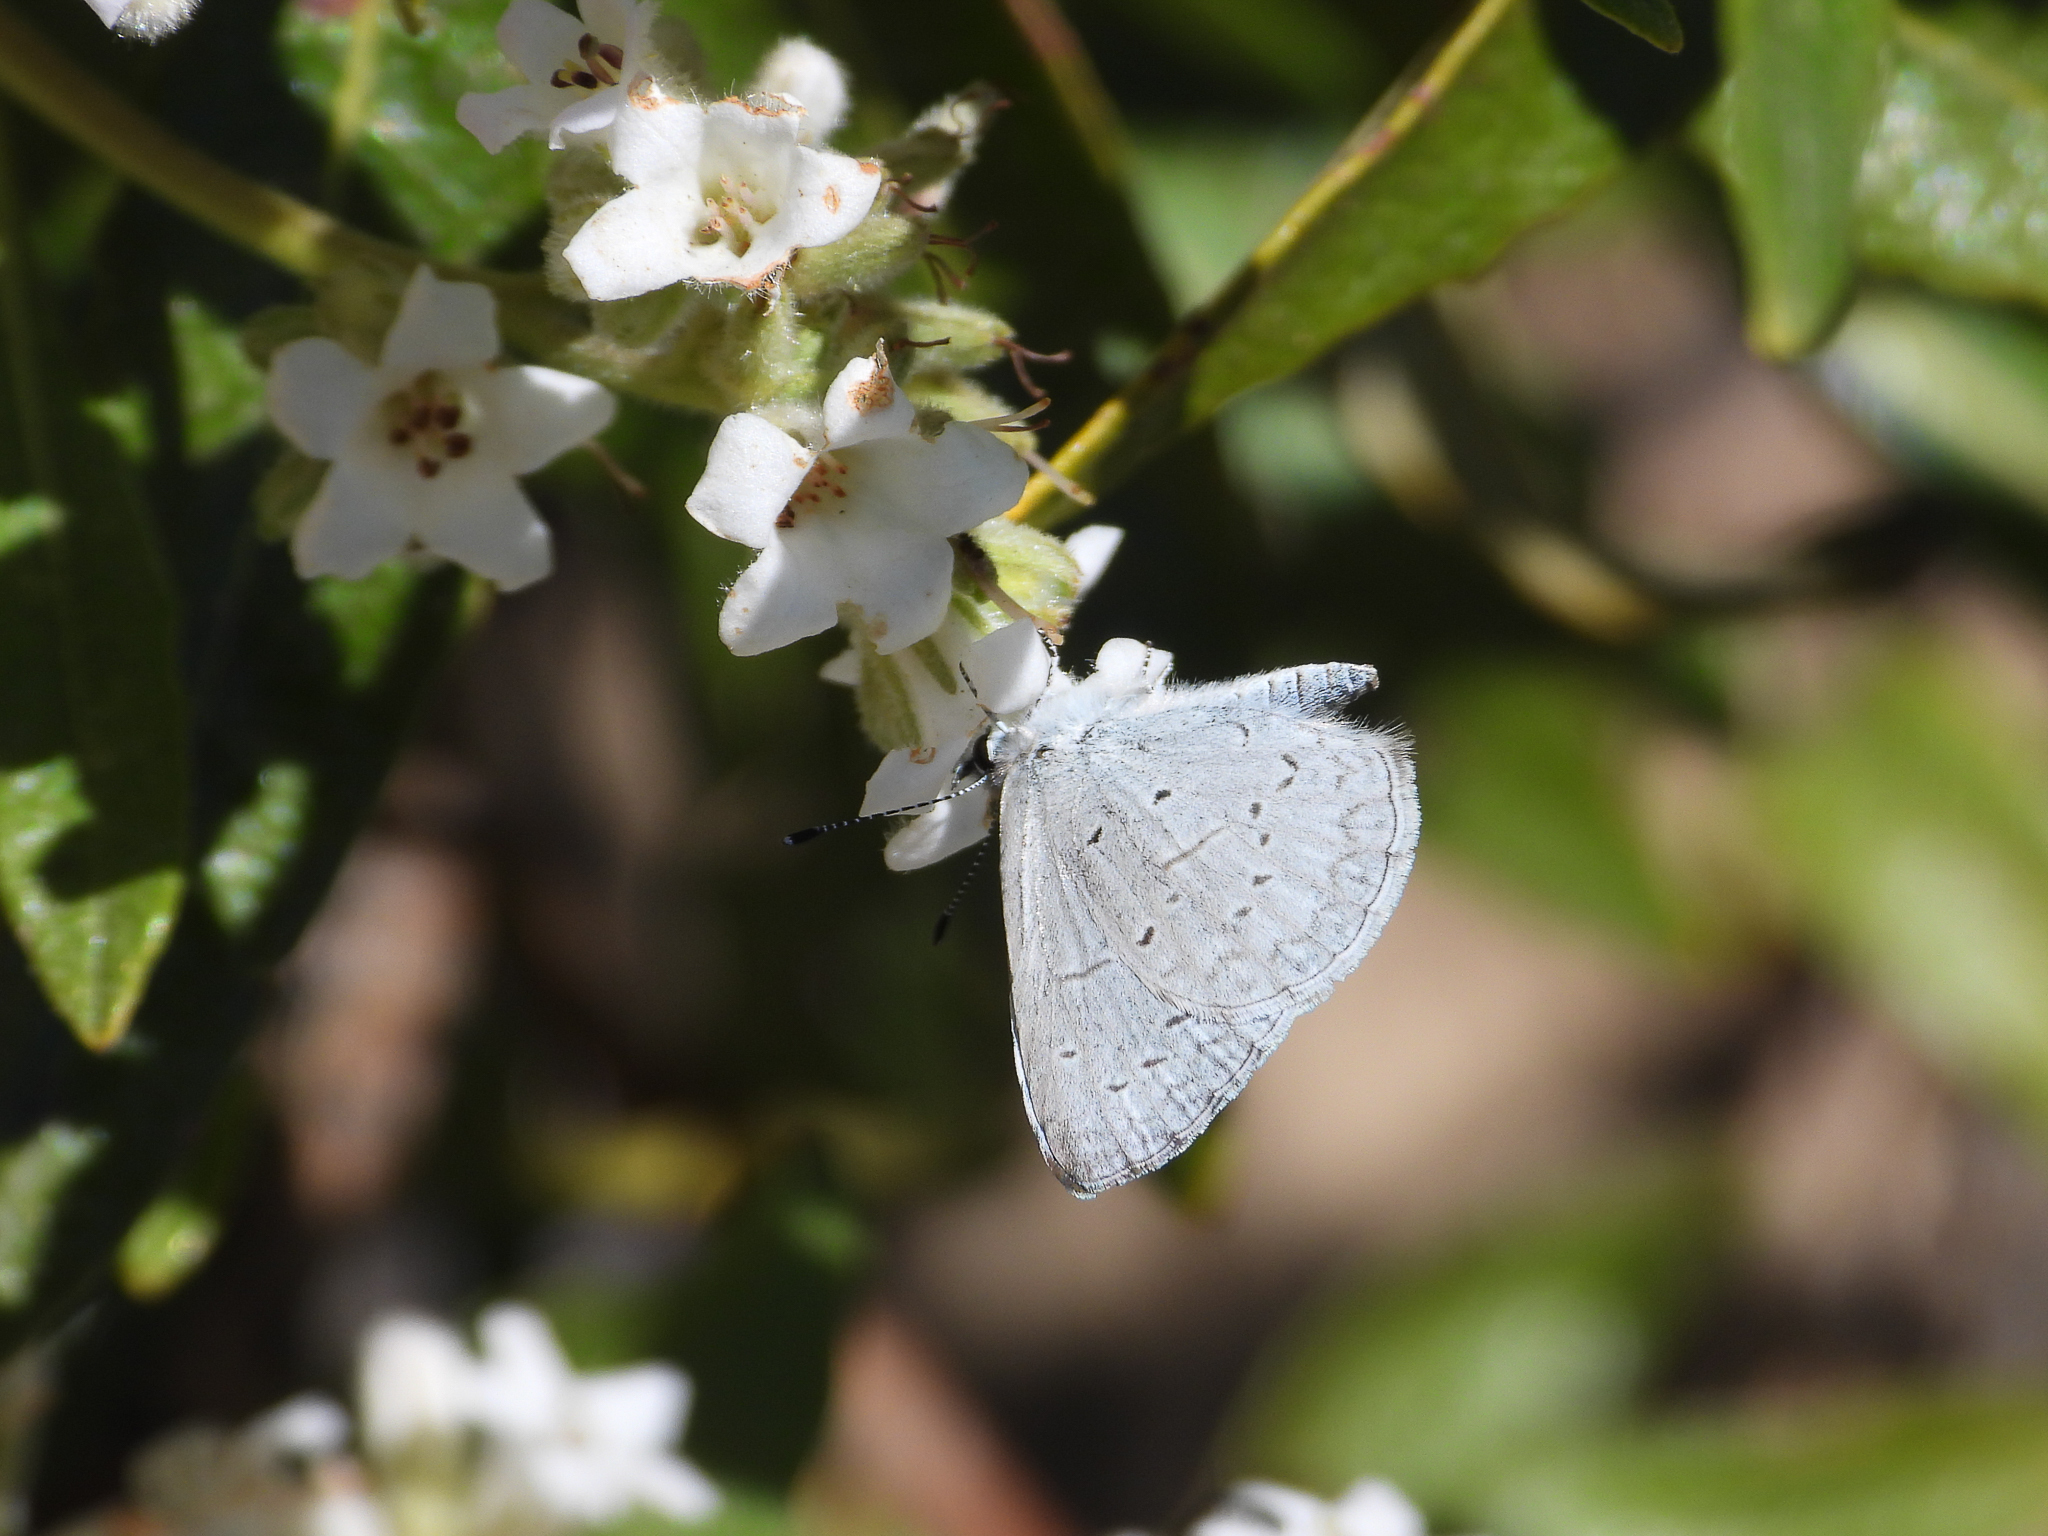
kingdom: Animalia
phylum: Arthropoda
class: Insecta
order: Lepidoptera
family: Lycaenidae
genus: Celastrina
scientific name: Celastrina ladon
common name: Spring azure
